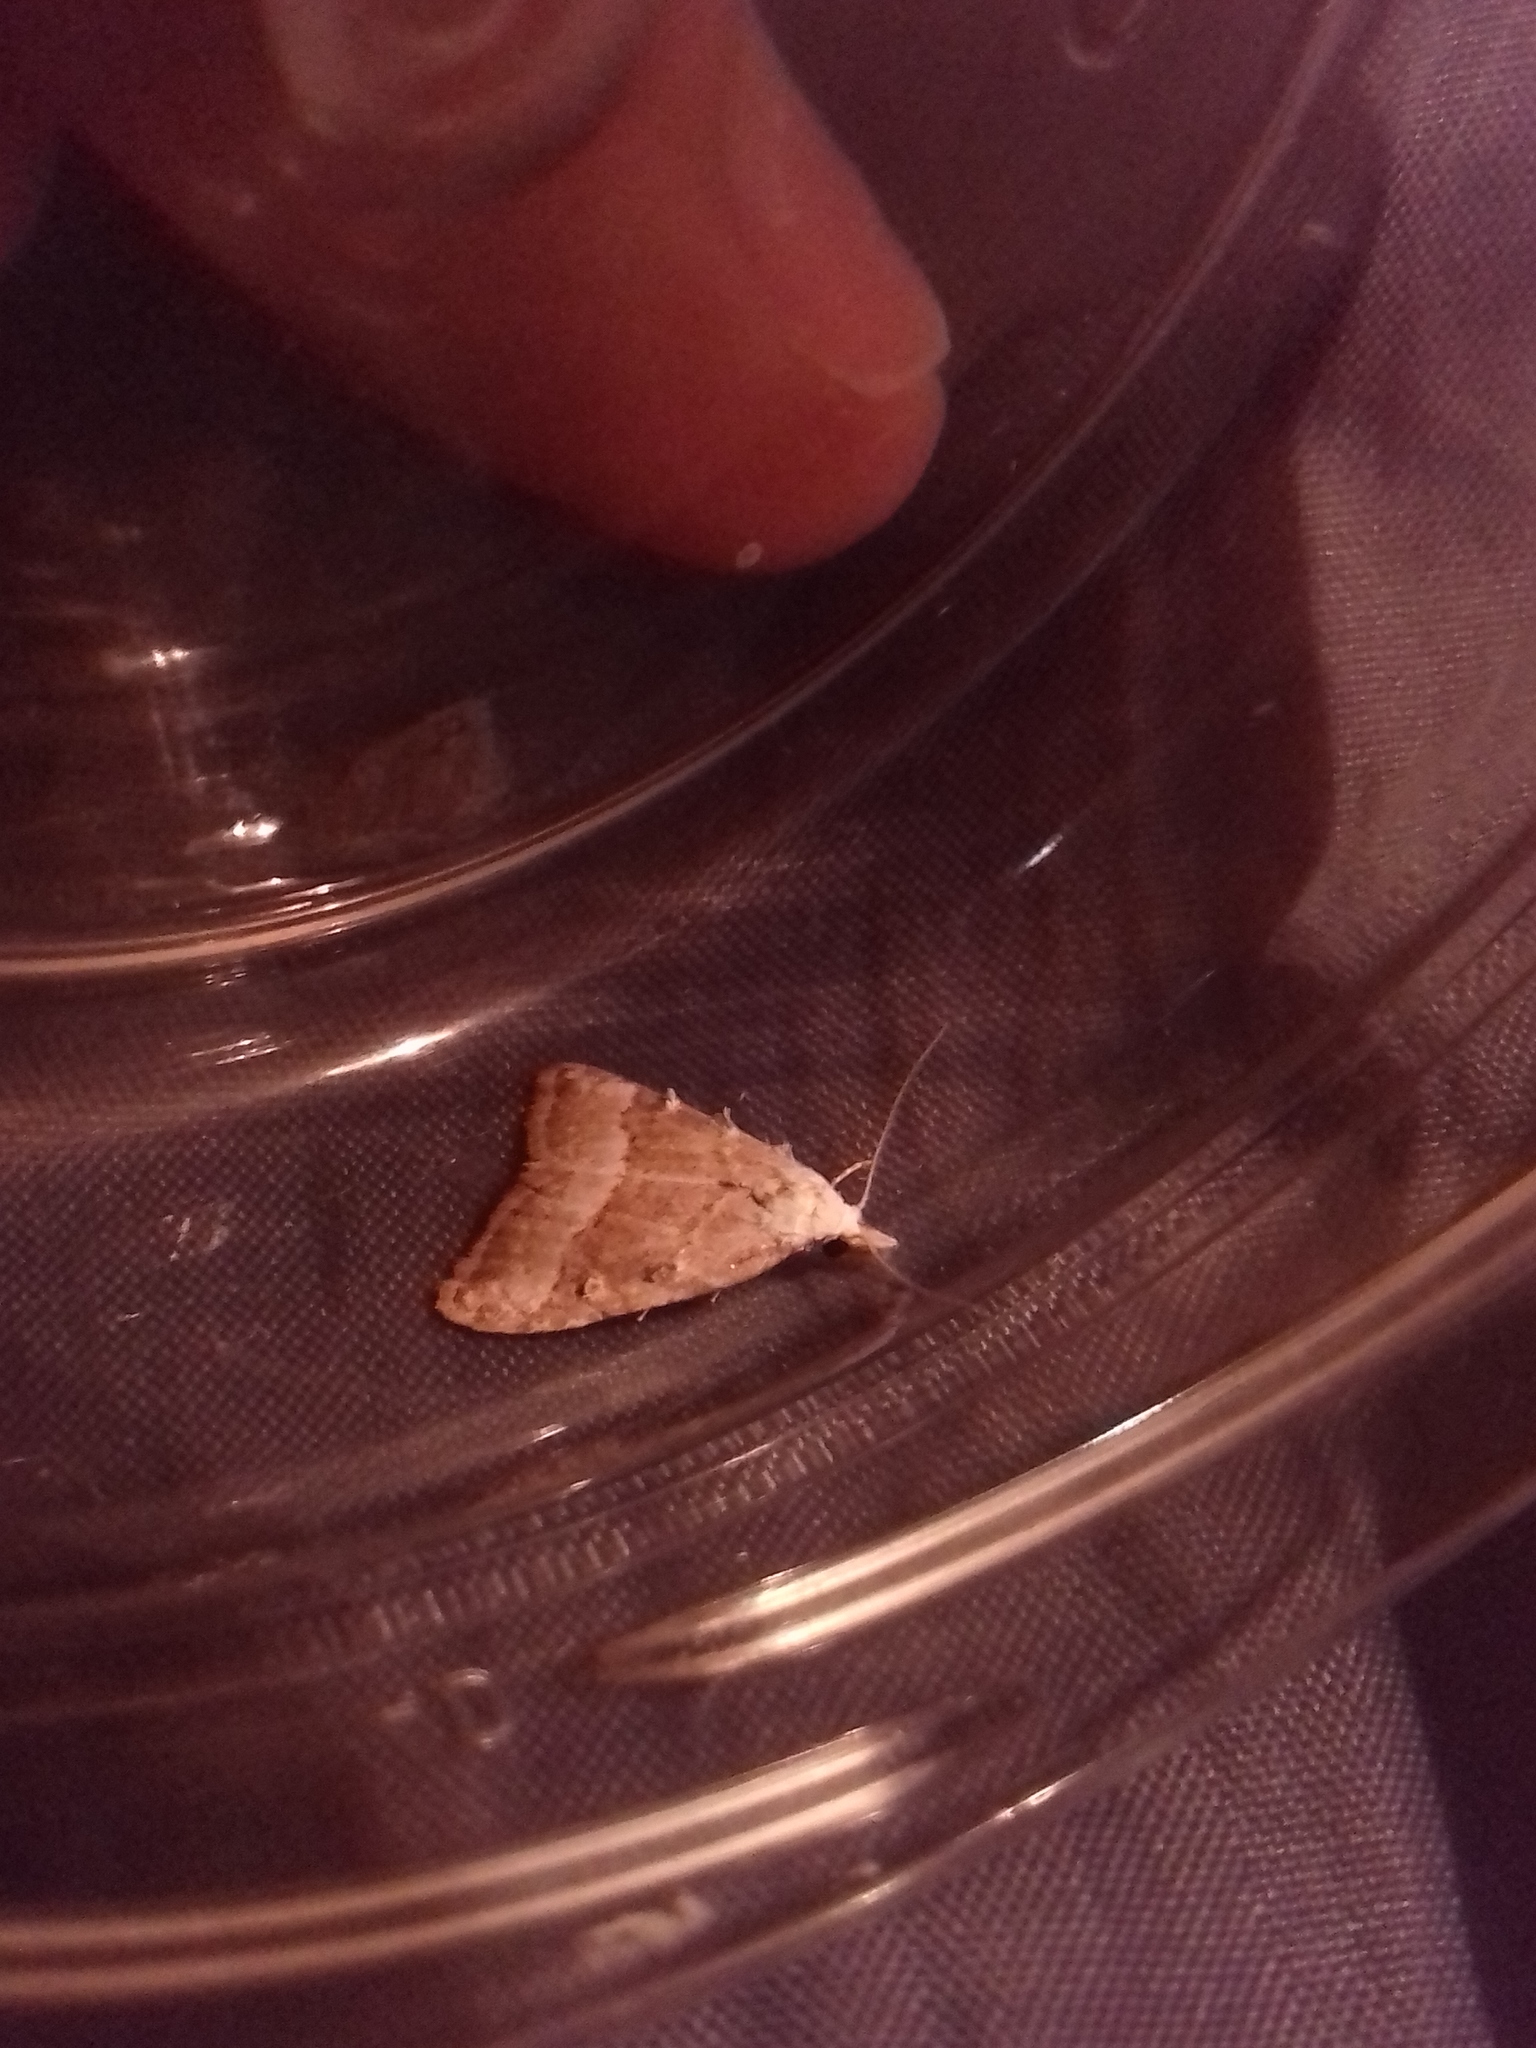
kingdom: Animalia
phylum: Arthropoda
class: Insecta
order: Lepidoptera
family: Nolidae
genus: Nola
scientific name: Nola aerugula
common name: Scarce black arches
